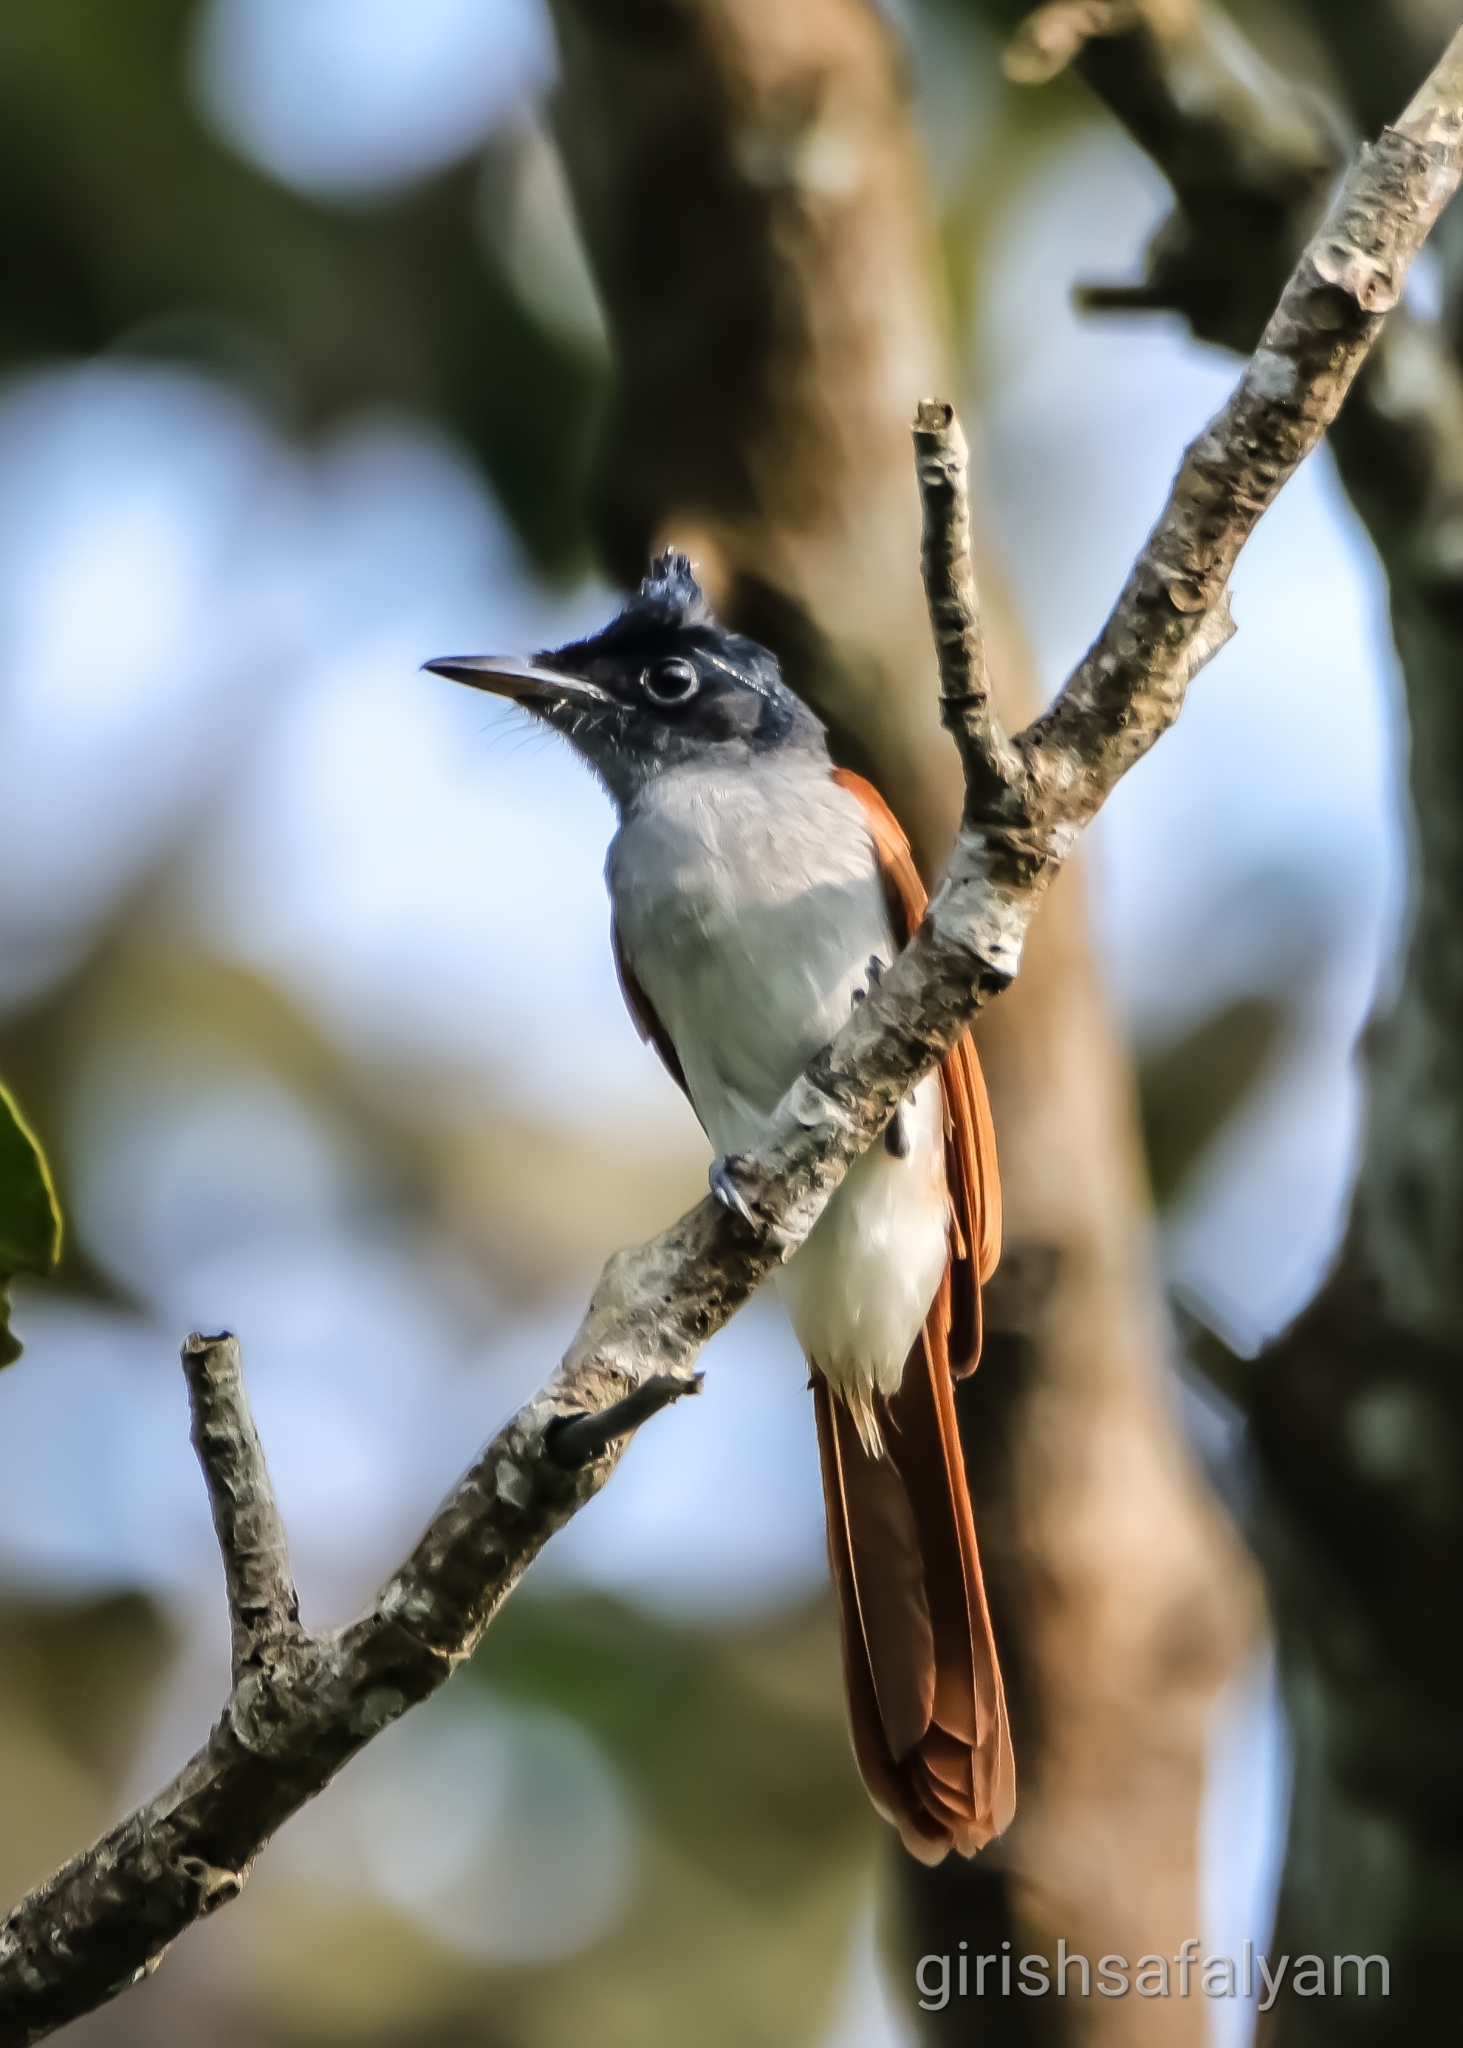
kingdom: Animalia
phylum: Chordata
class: Aves
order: Passeriformes
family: Monarchidae
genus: Terpsiphone
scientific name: Terpsiphone paradisi
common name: Indian paradise flycatcher
